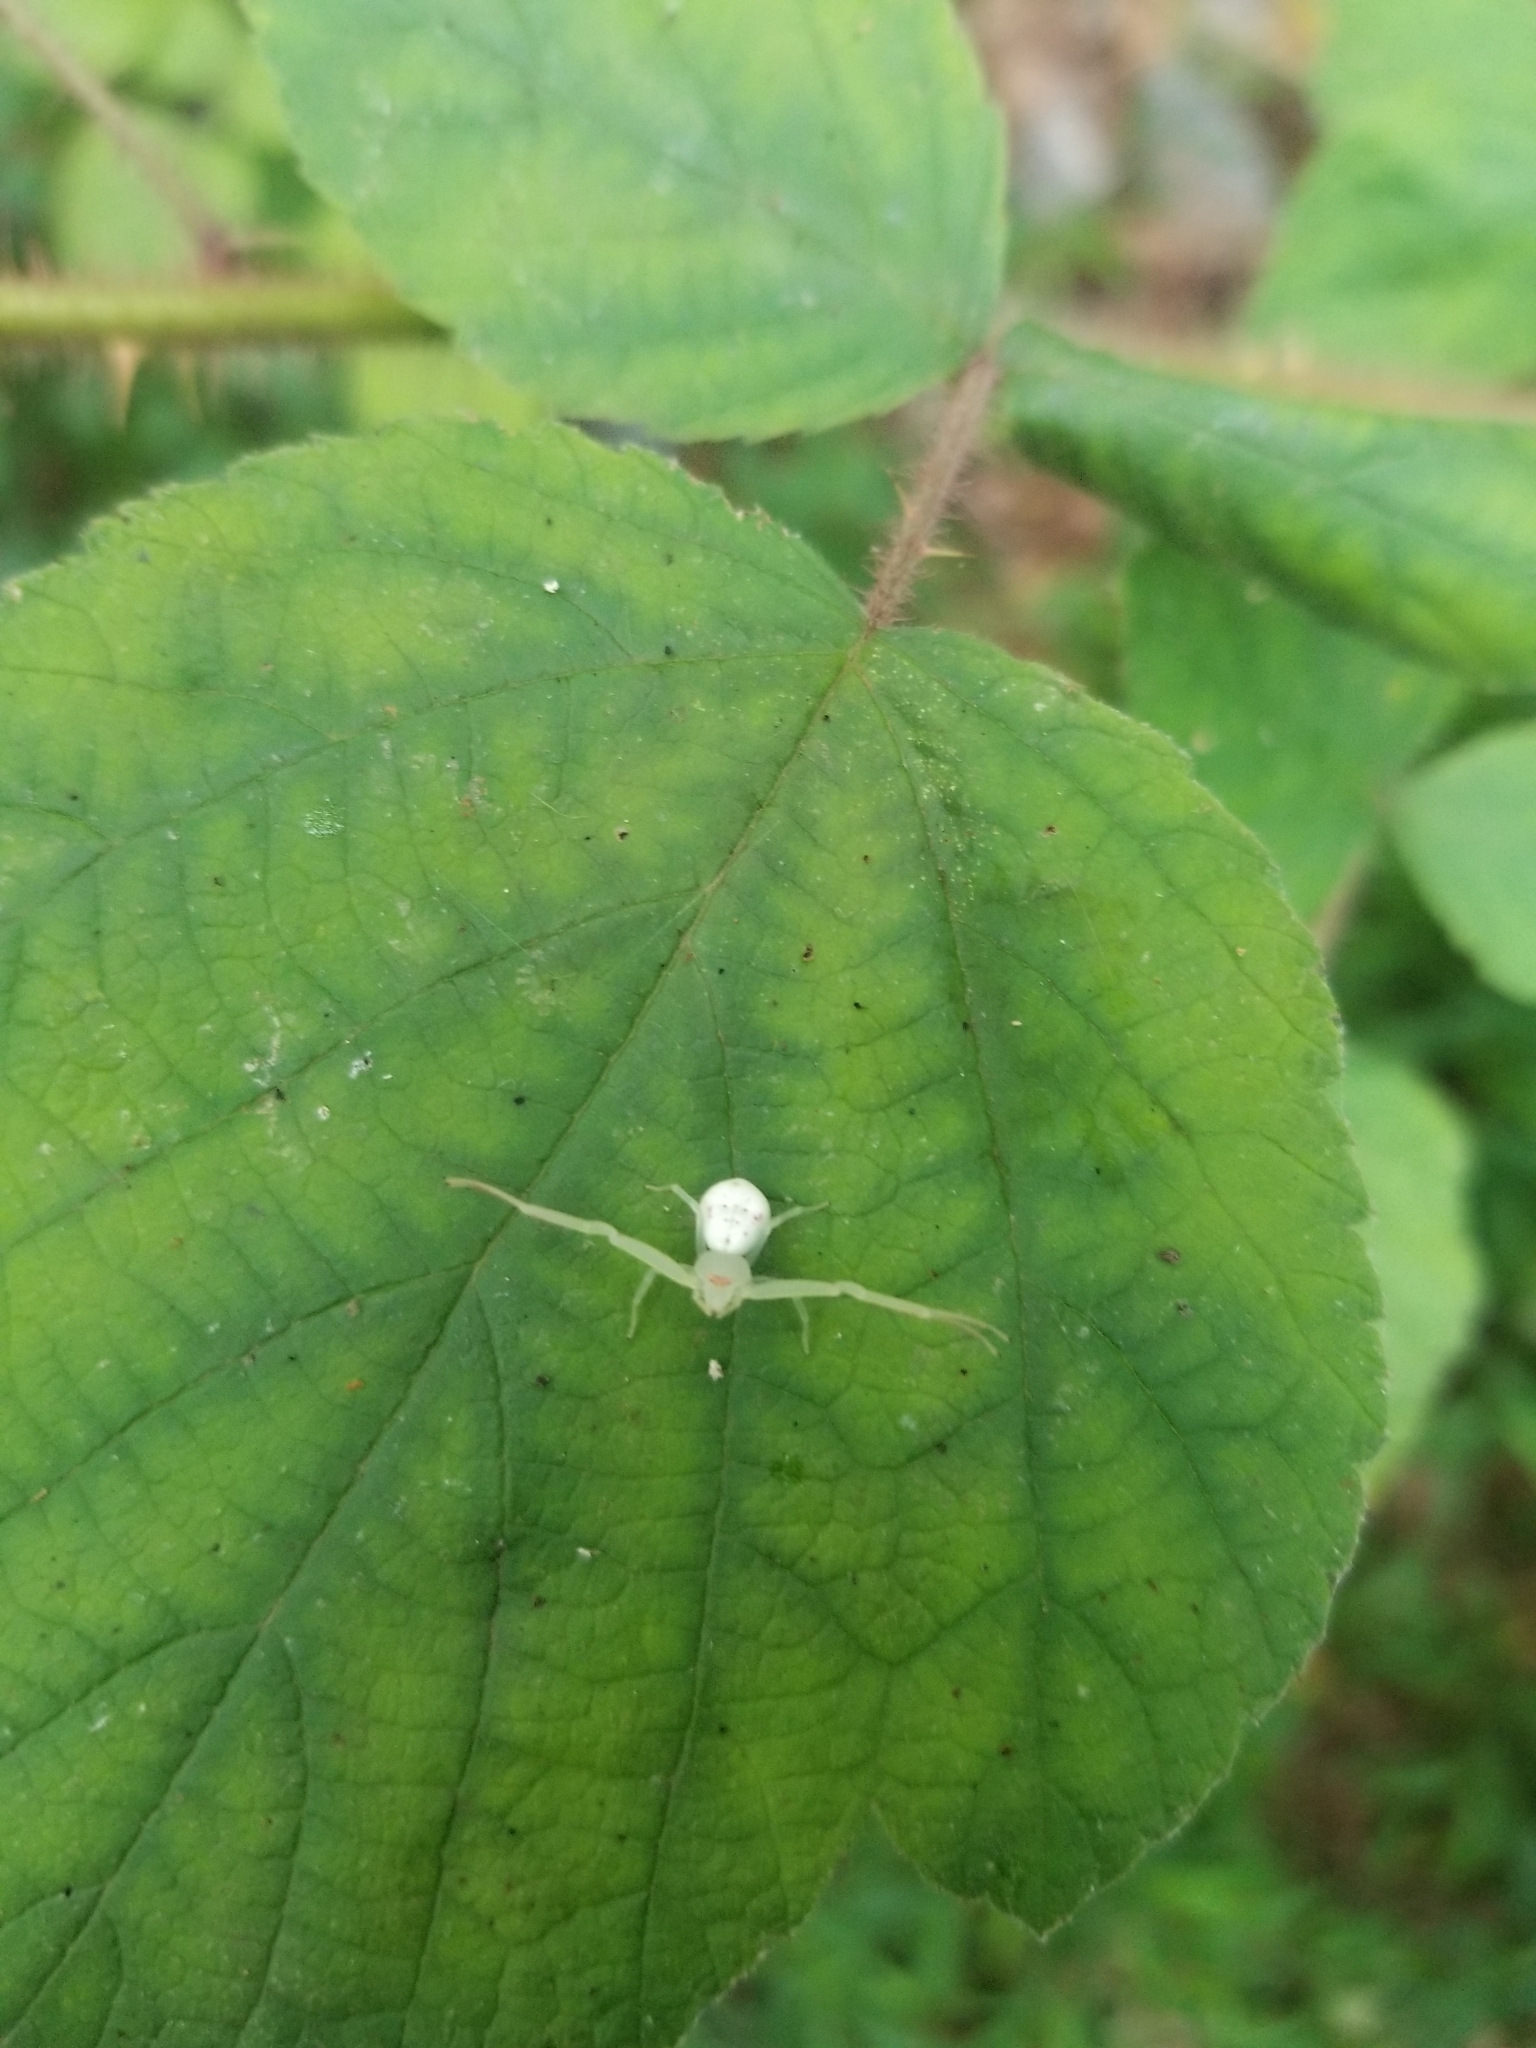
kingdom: Animalia
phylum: Arthropoda
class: Arachnida
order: Araneae
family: Thomisidae
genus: Misumessus
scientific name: Misumessus oblongus
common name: American green crab spider
